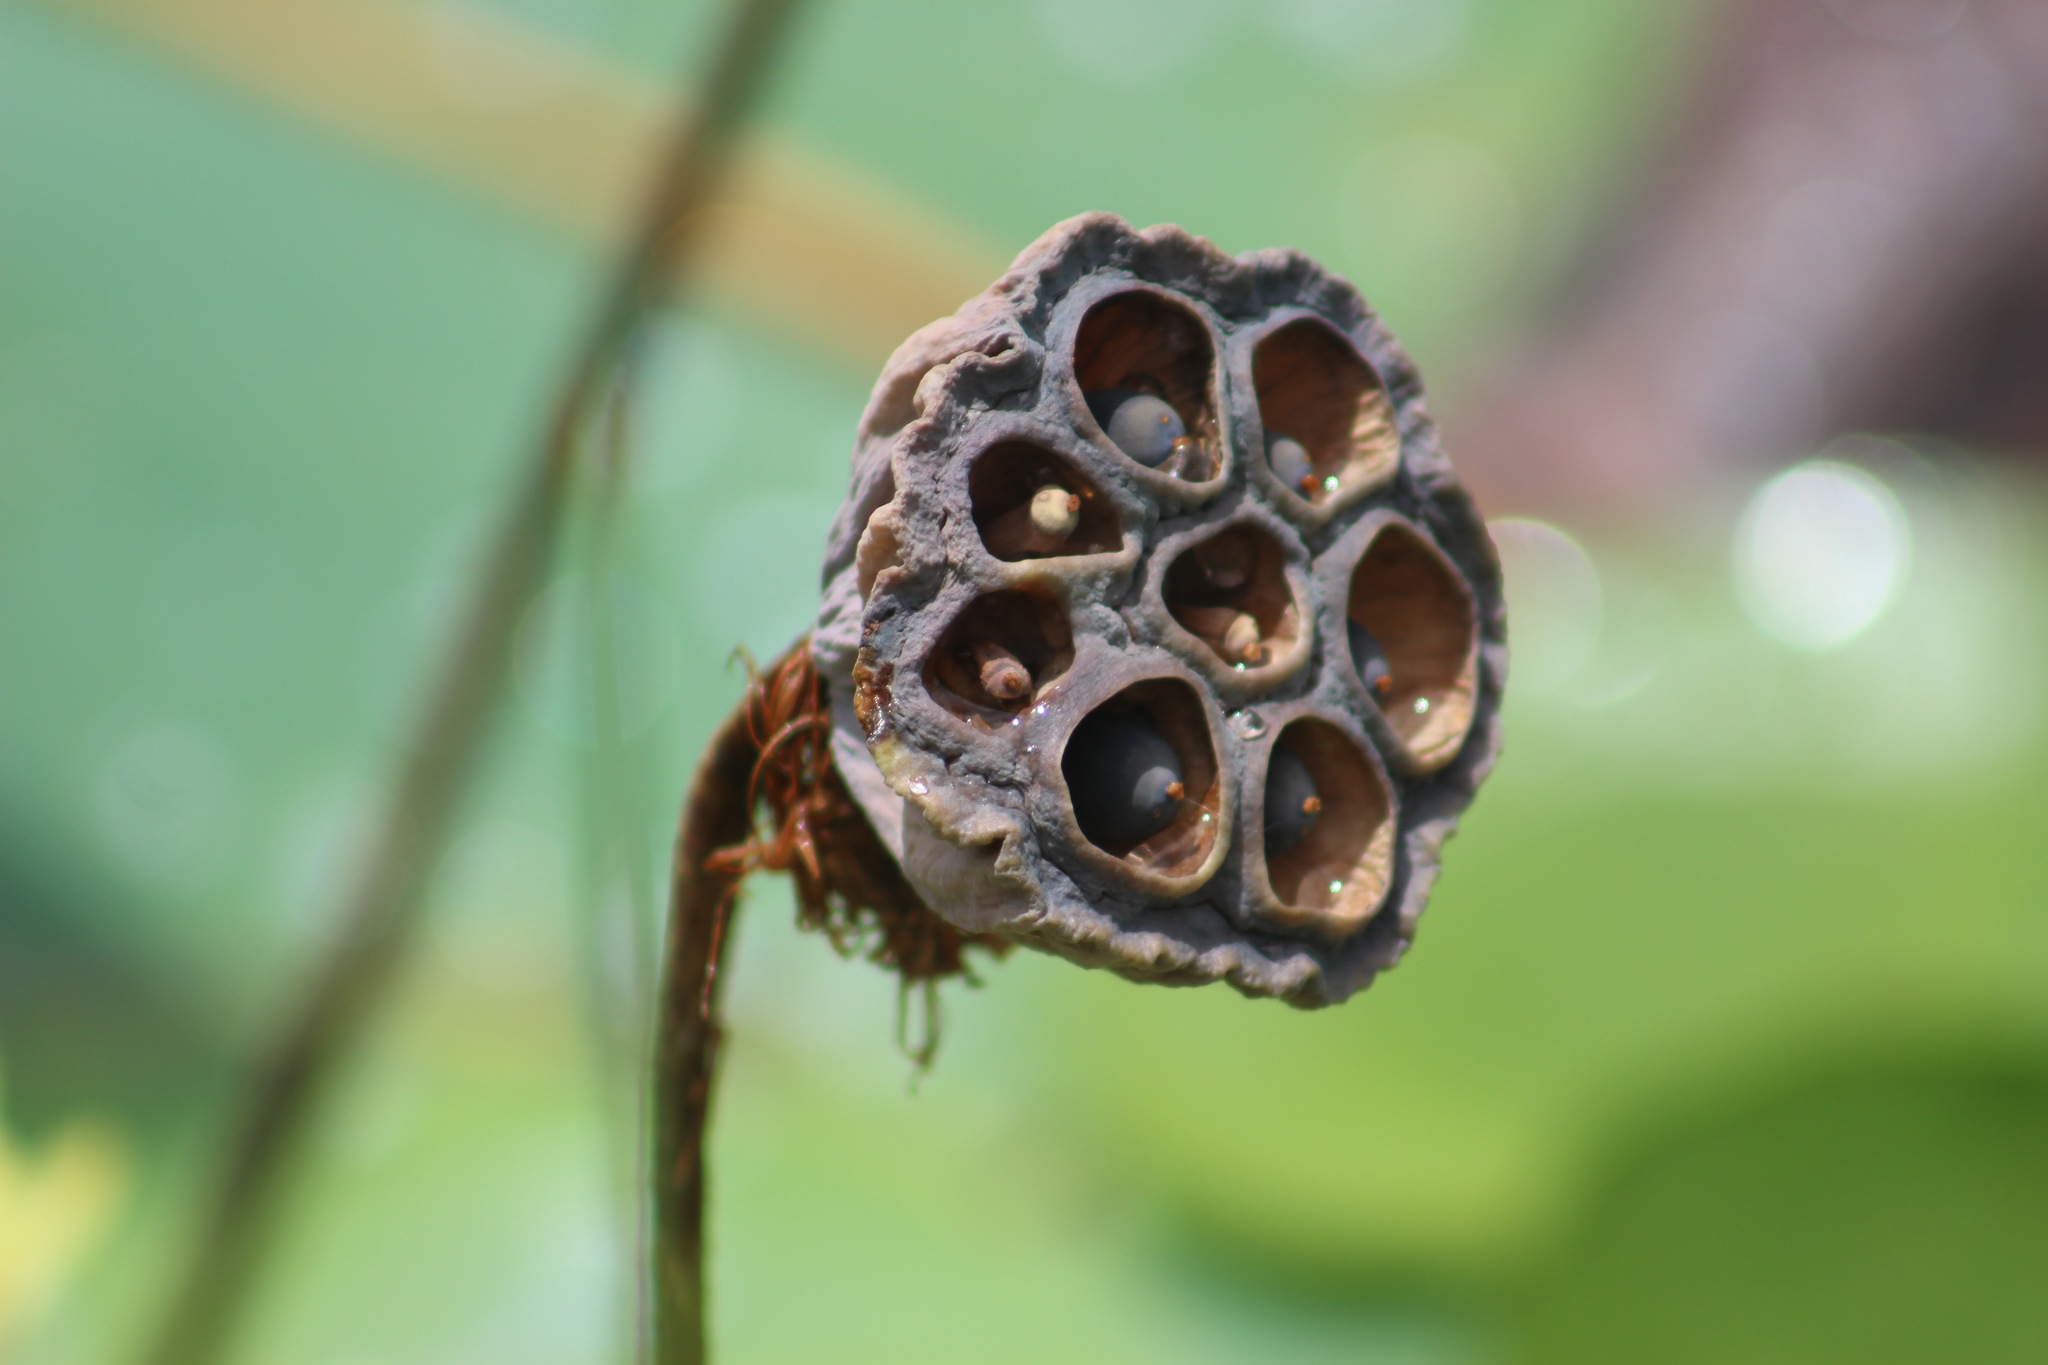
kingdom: Plantae
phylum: Tracheophyta
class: Magnoliopsida
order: Proteales
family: Nelumbonaceae
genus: Nelumbo
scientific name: Nelumbo nucifera
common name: Sacred lotus
